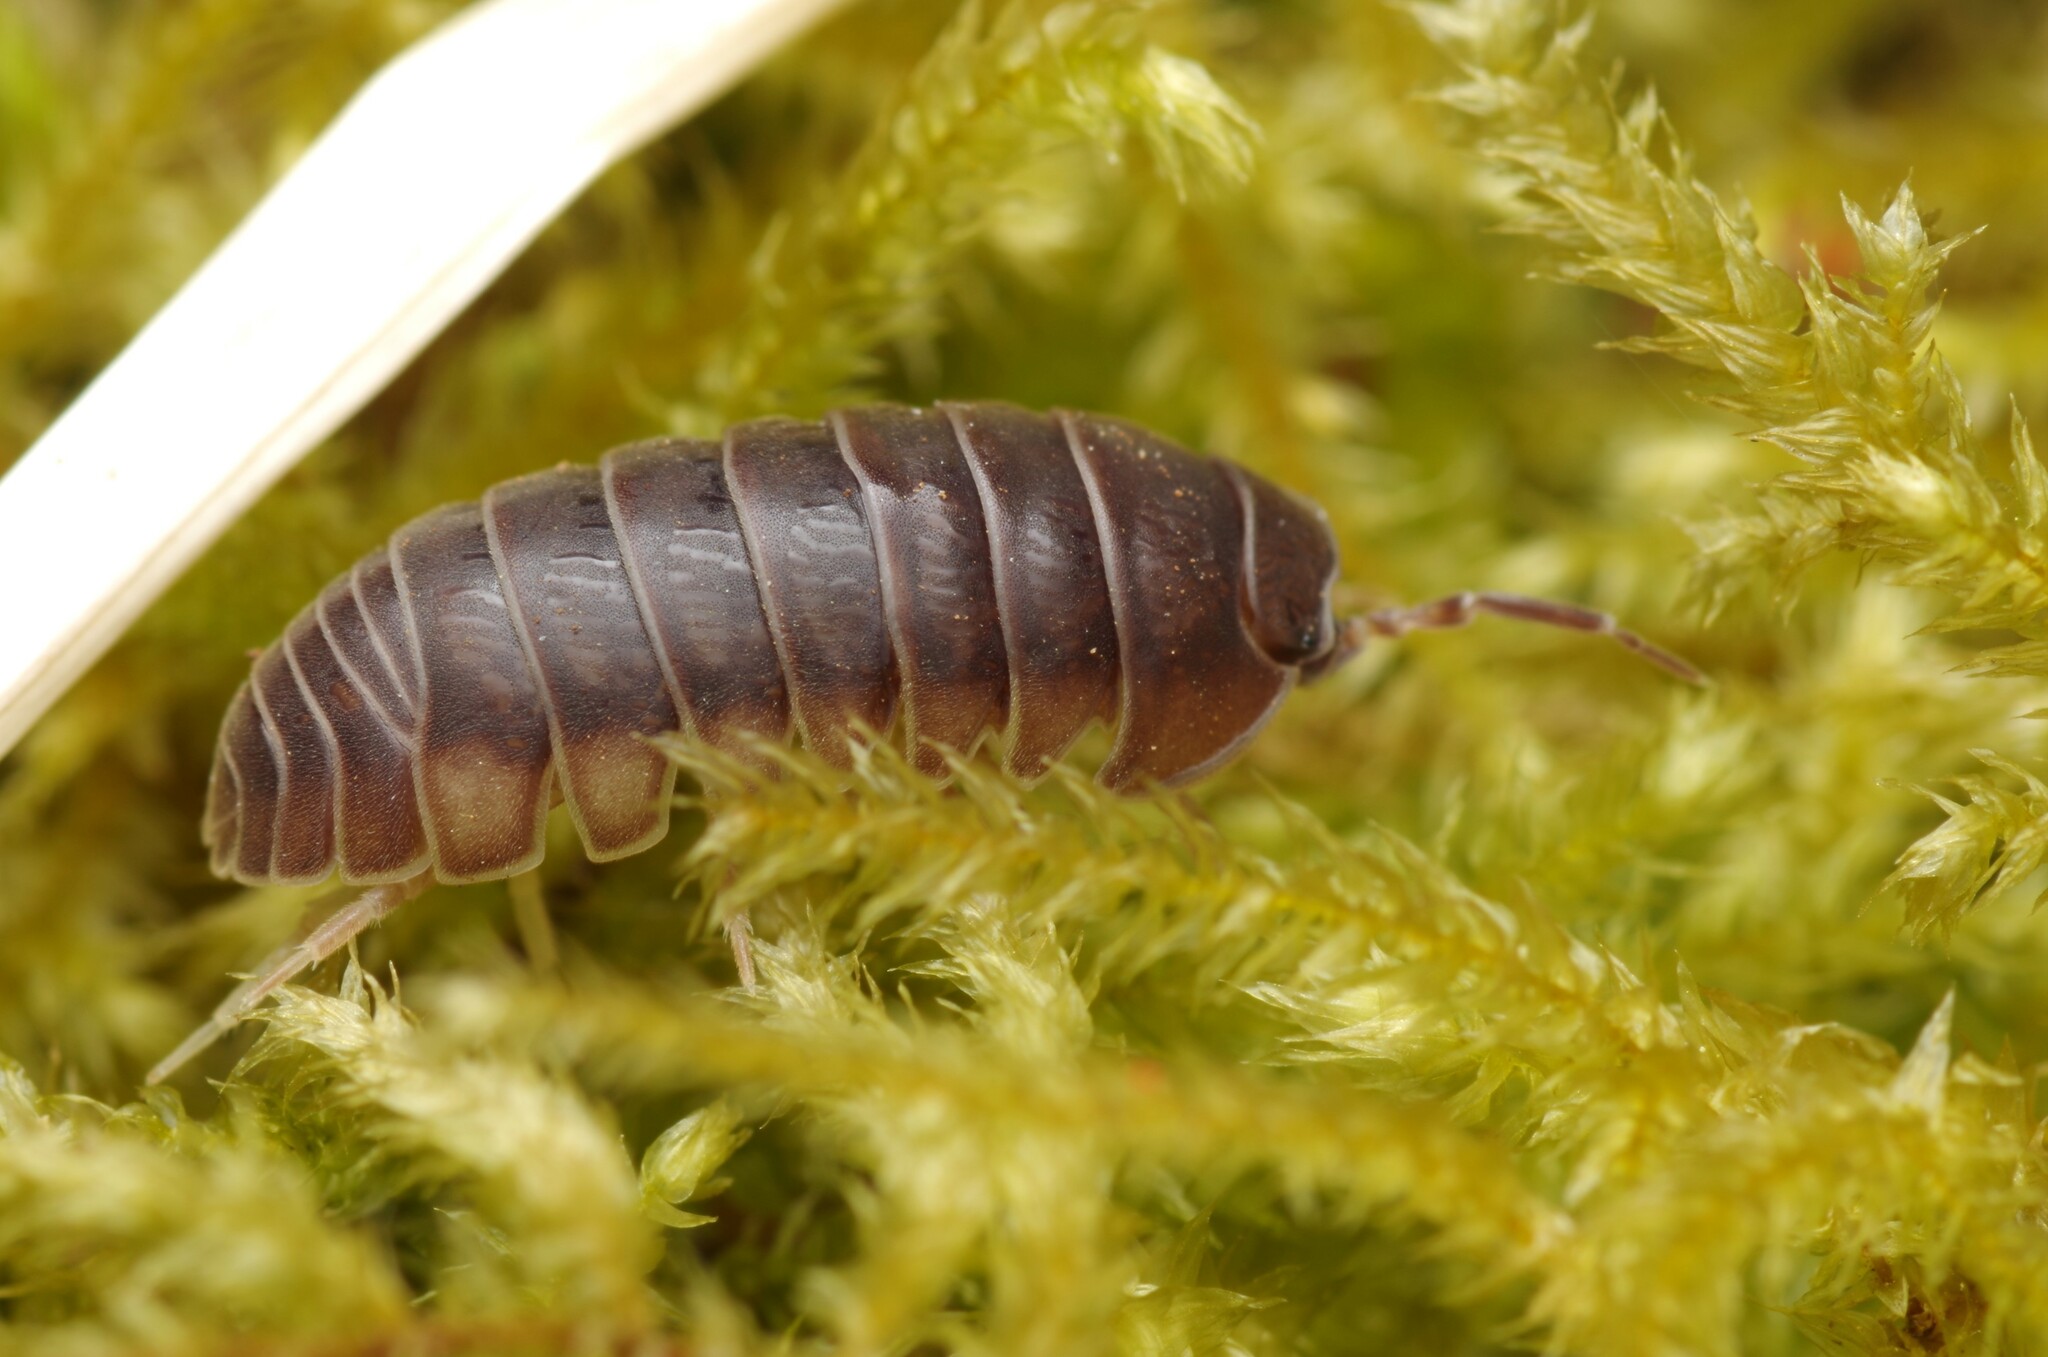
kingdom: Animalia
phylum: Arthropoda
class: Malacostraca
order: Isopoda
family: Armadillidiidae
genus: Eluma
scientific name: Eluma caelata
